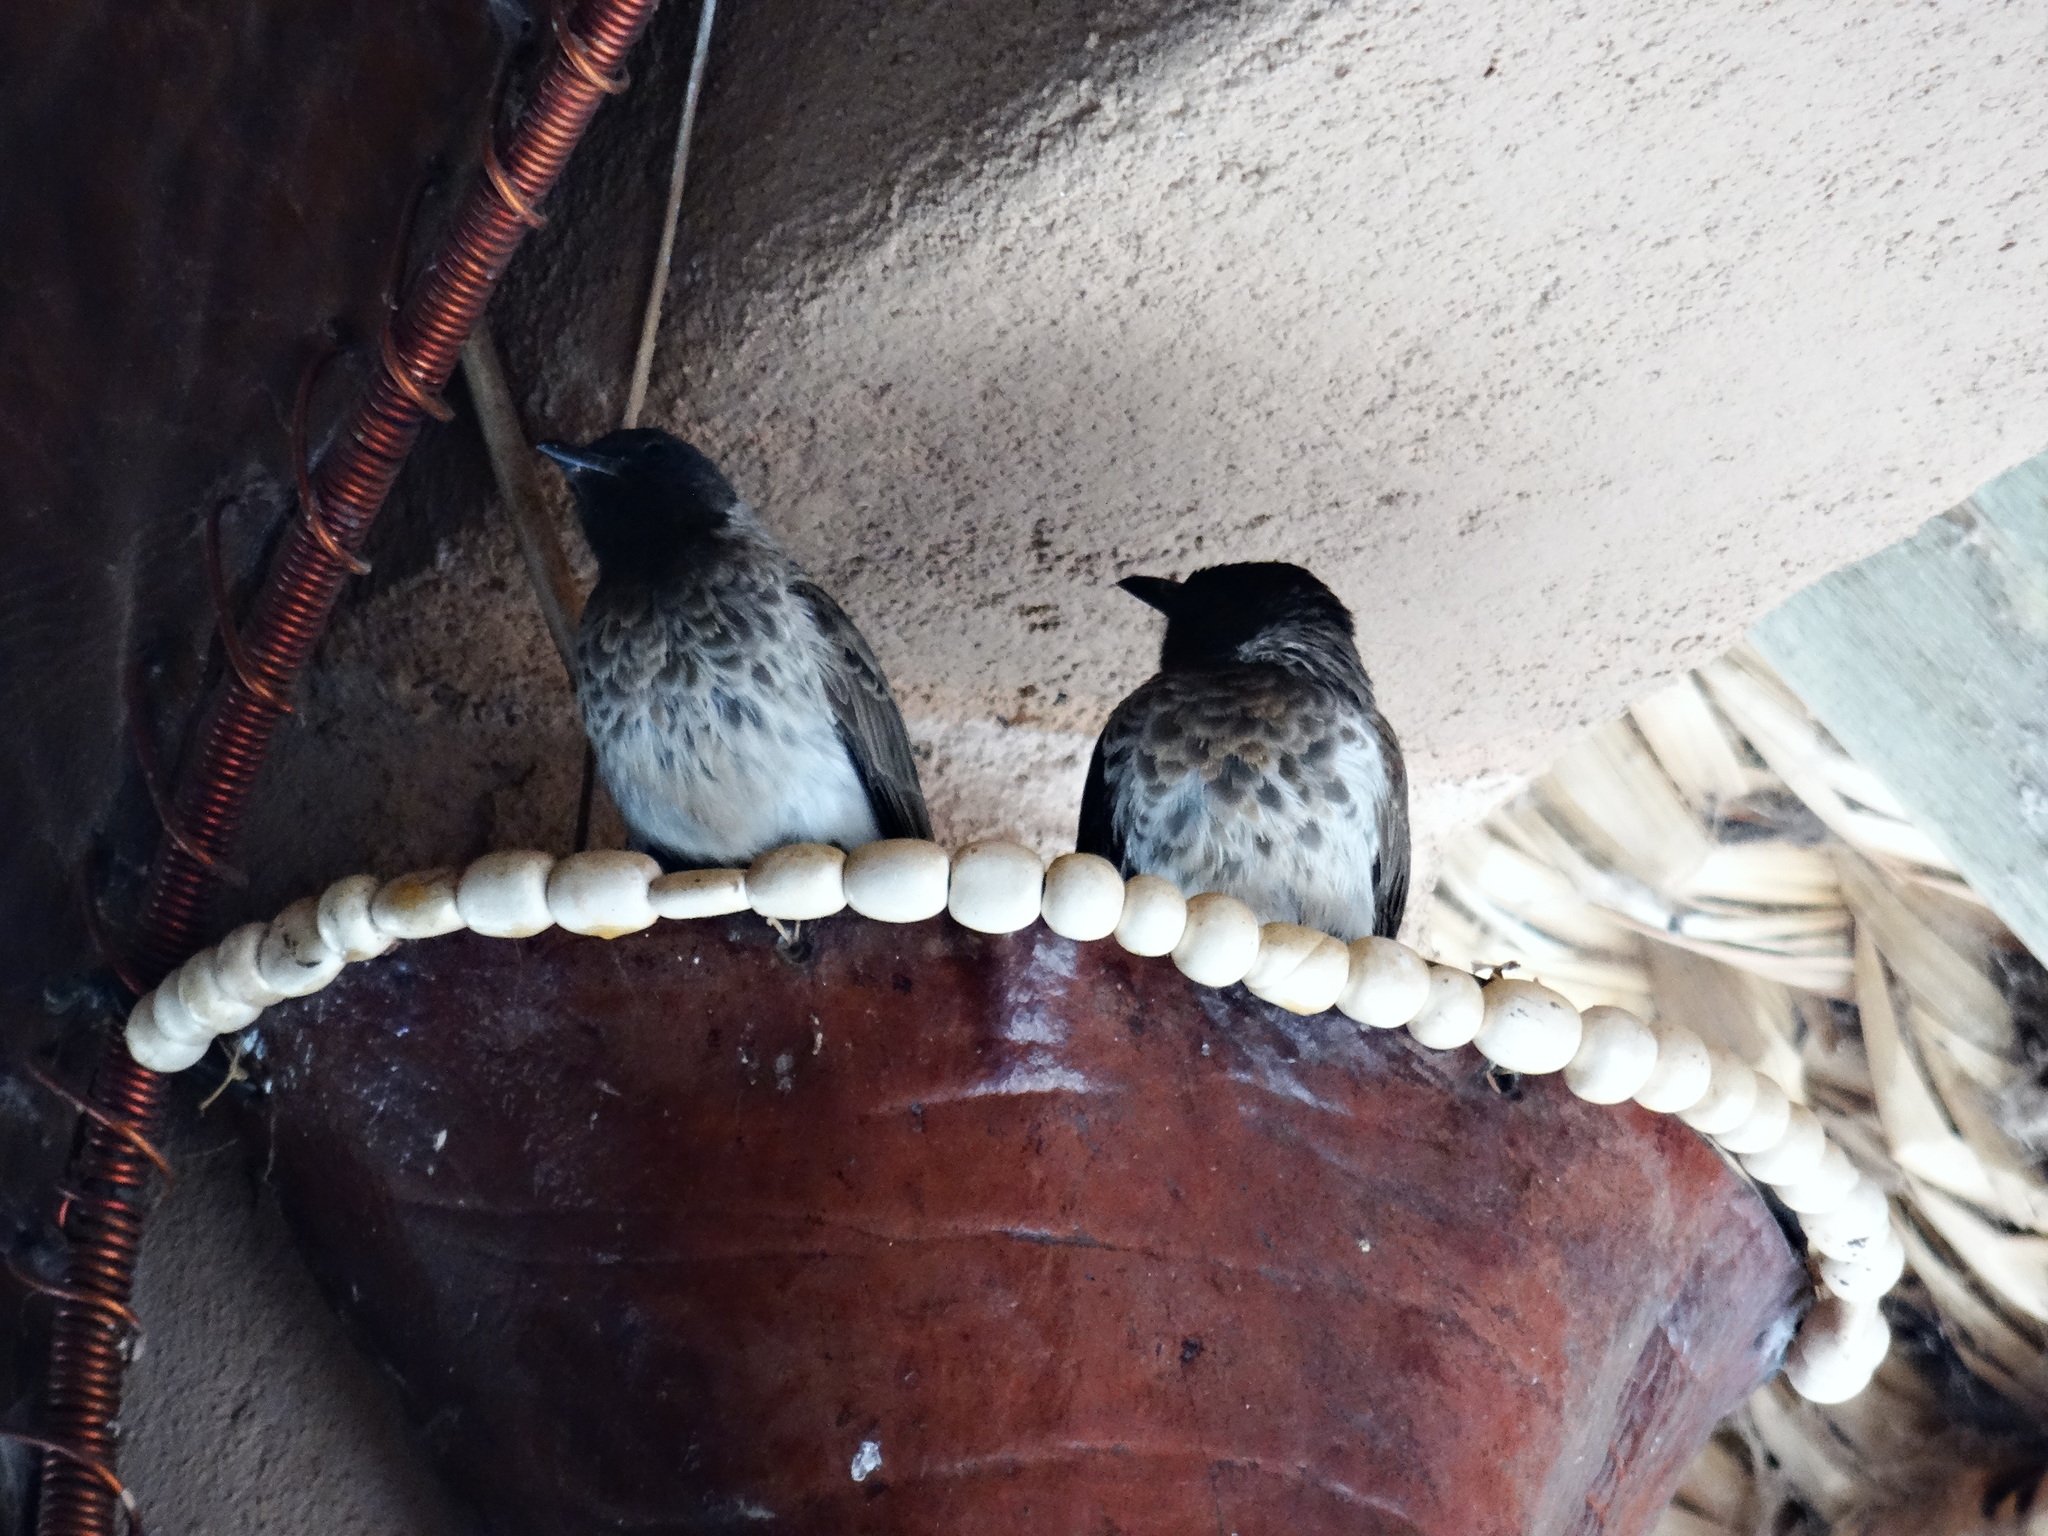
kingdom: Animalia
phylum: Chordata
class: Aves
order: Passeriformes
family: Pycnonotidae
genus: Pycnonotus
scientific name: Pycnonotus barbatus
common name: Common bulbul
